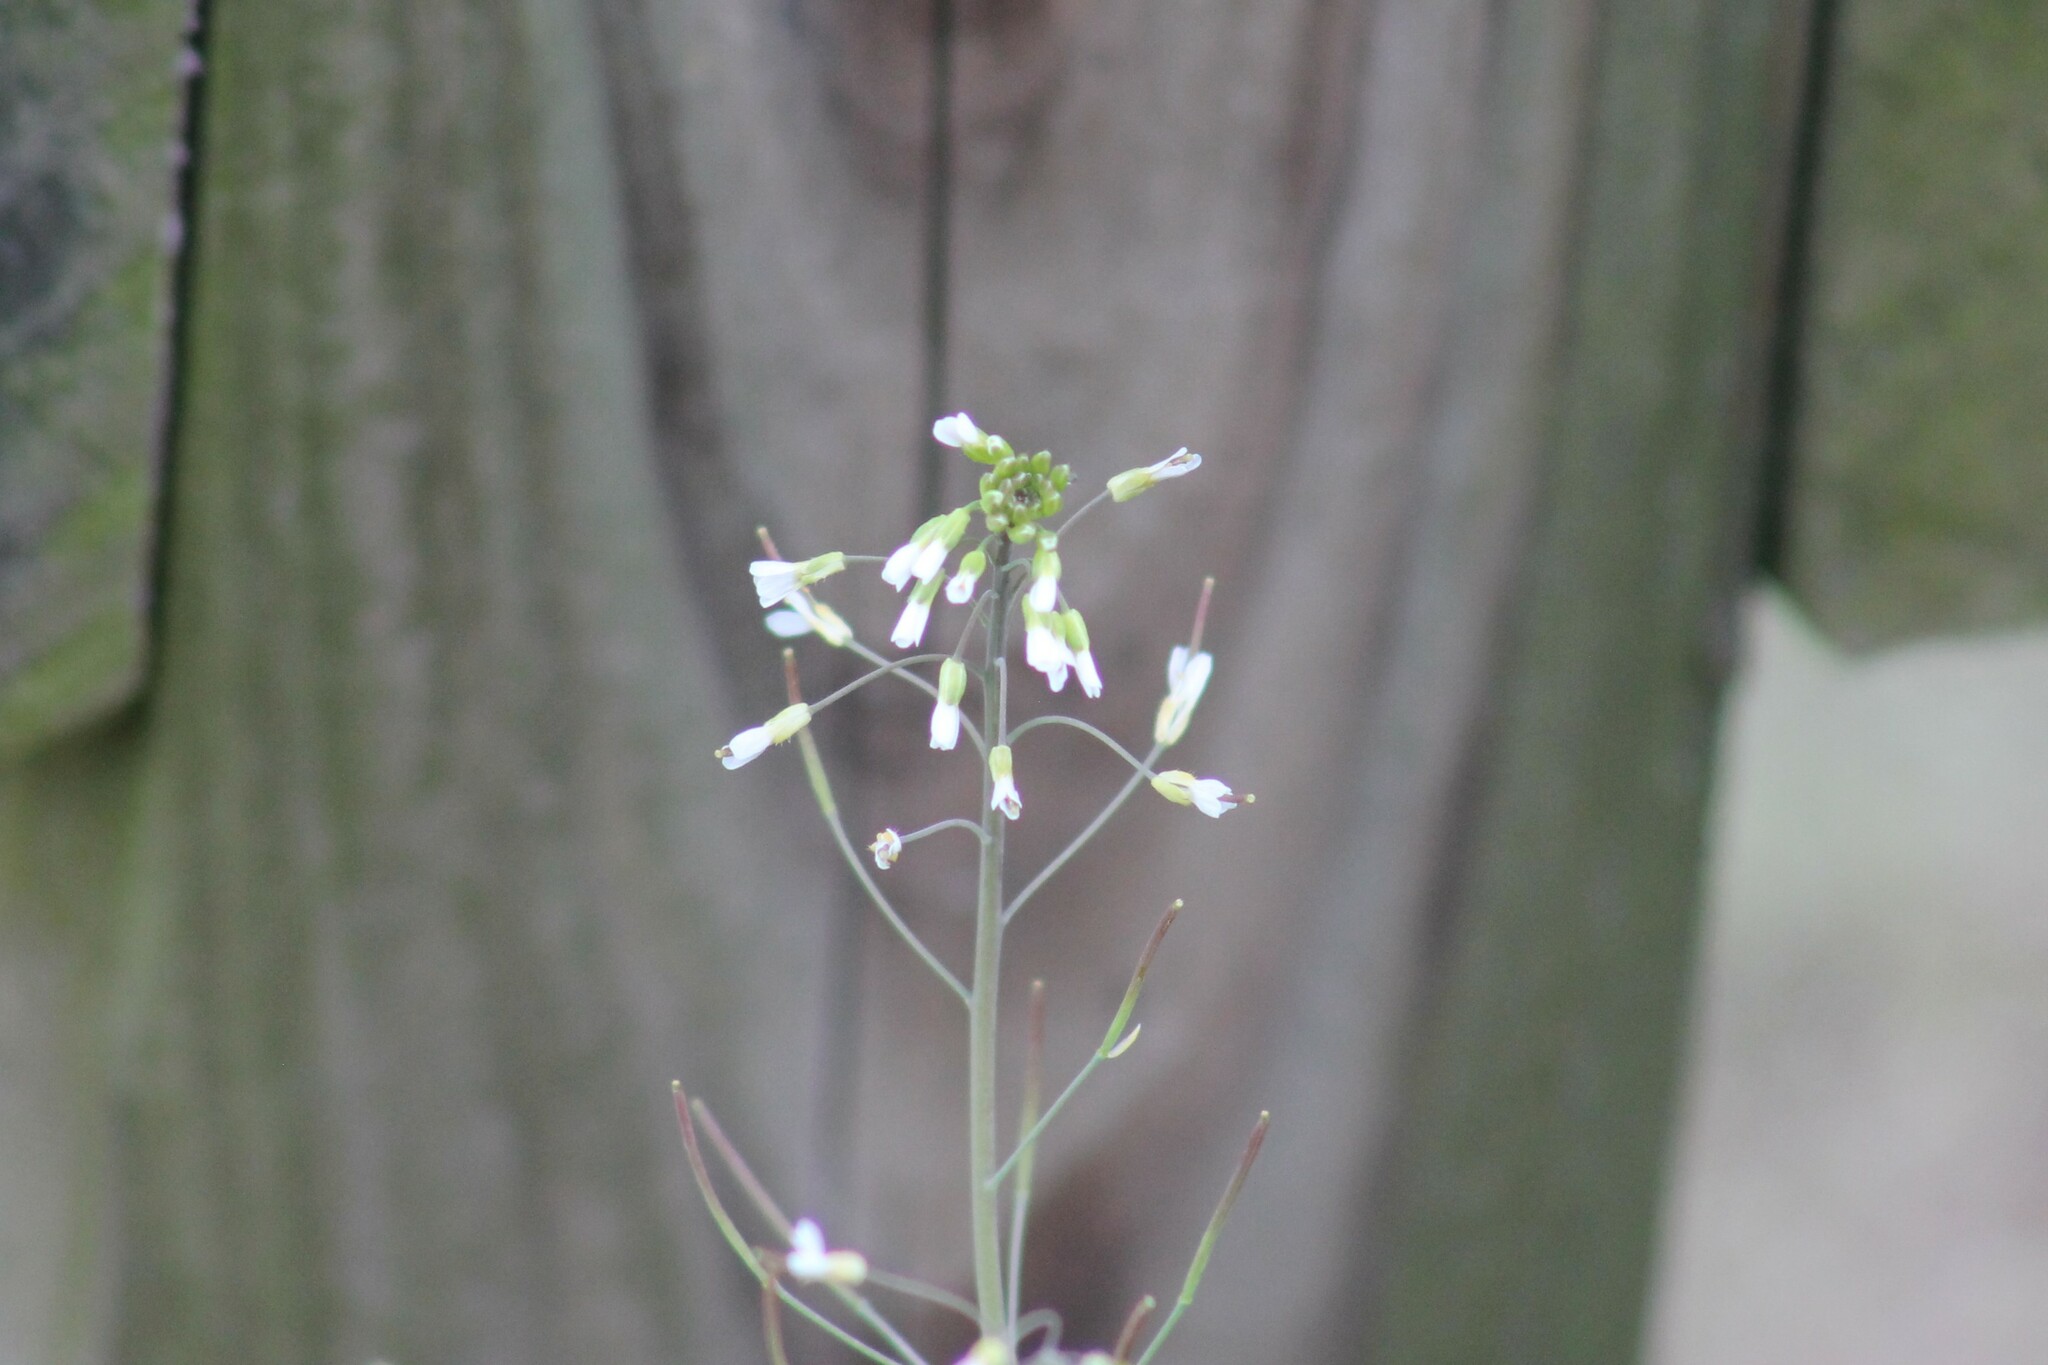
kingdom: Plantae
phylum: Tracheophyta
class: Magnoliopsida
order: Brassicales
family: Brassicaceae
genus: Arabidopsis
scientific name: Arabidopsis thaliana
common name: Thale cress
